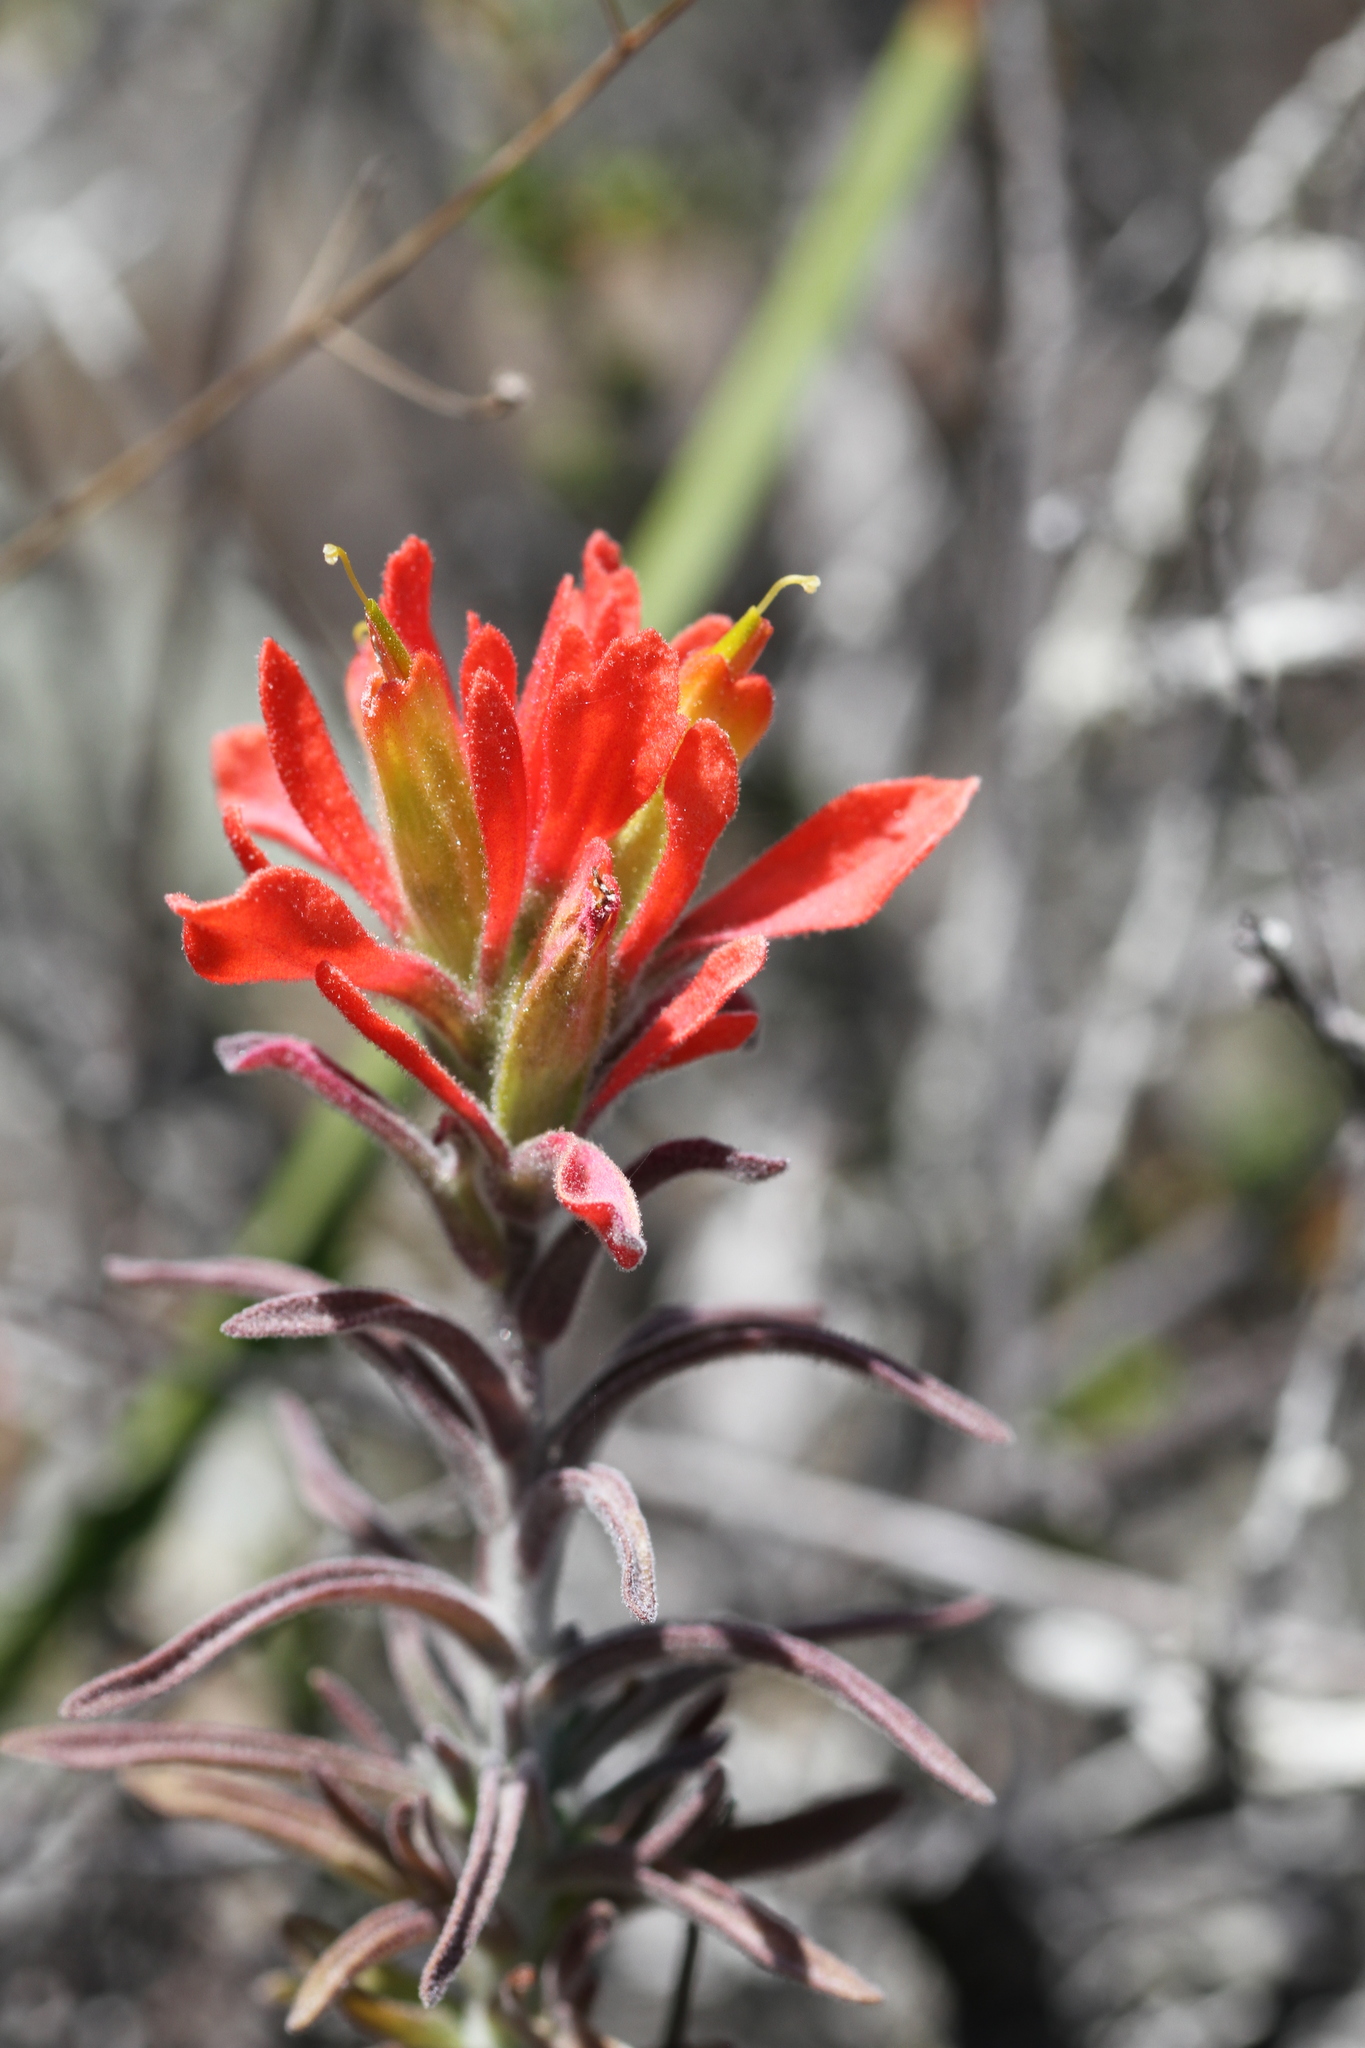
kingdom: Plantae
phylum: Tracheophyta
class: Magnoliopsida
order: Lamiales
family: Orobanchaceae
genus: Castilleja
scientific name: Castilleja foliolosa
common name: Woolly indian paintbrush
